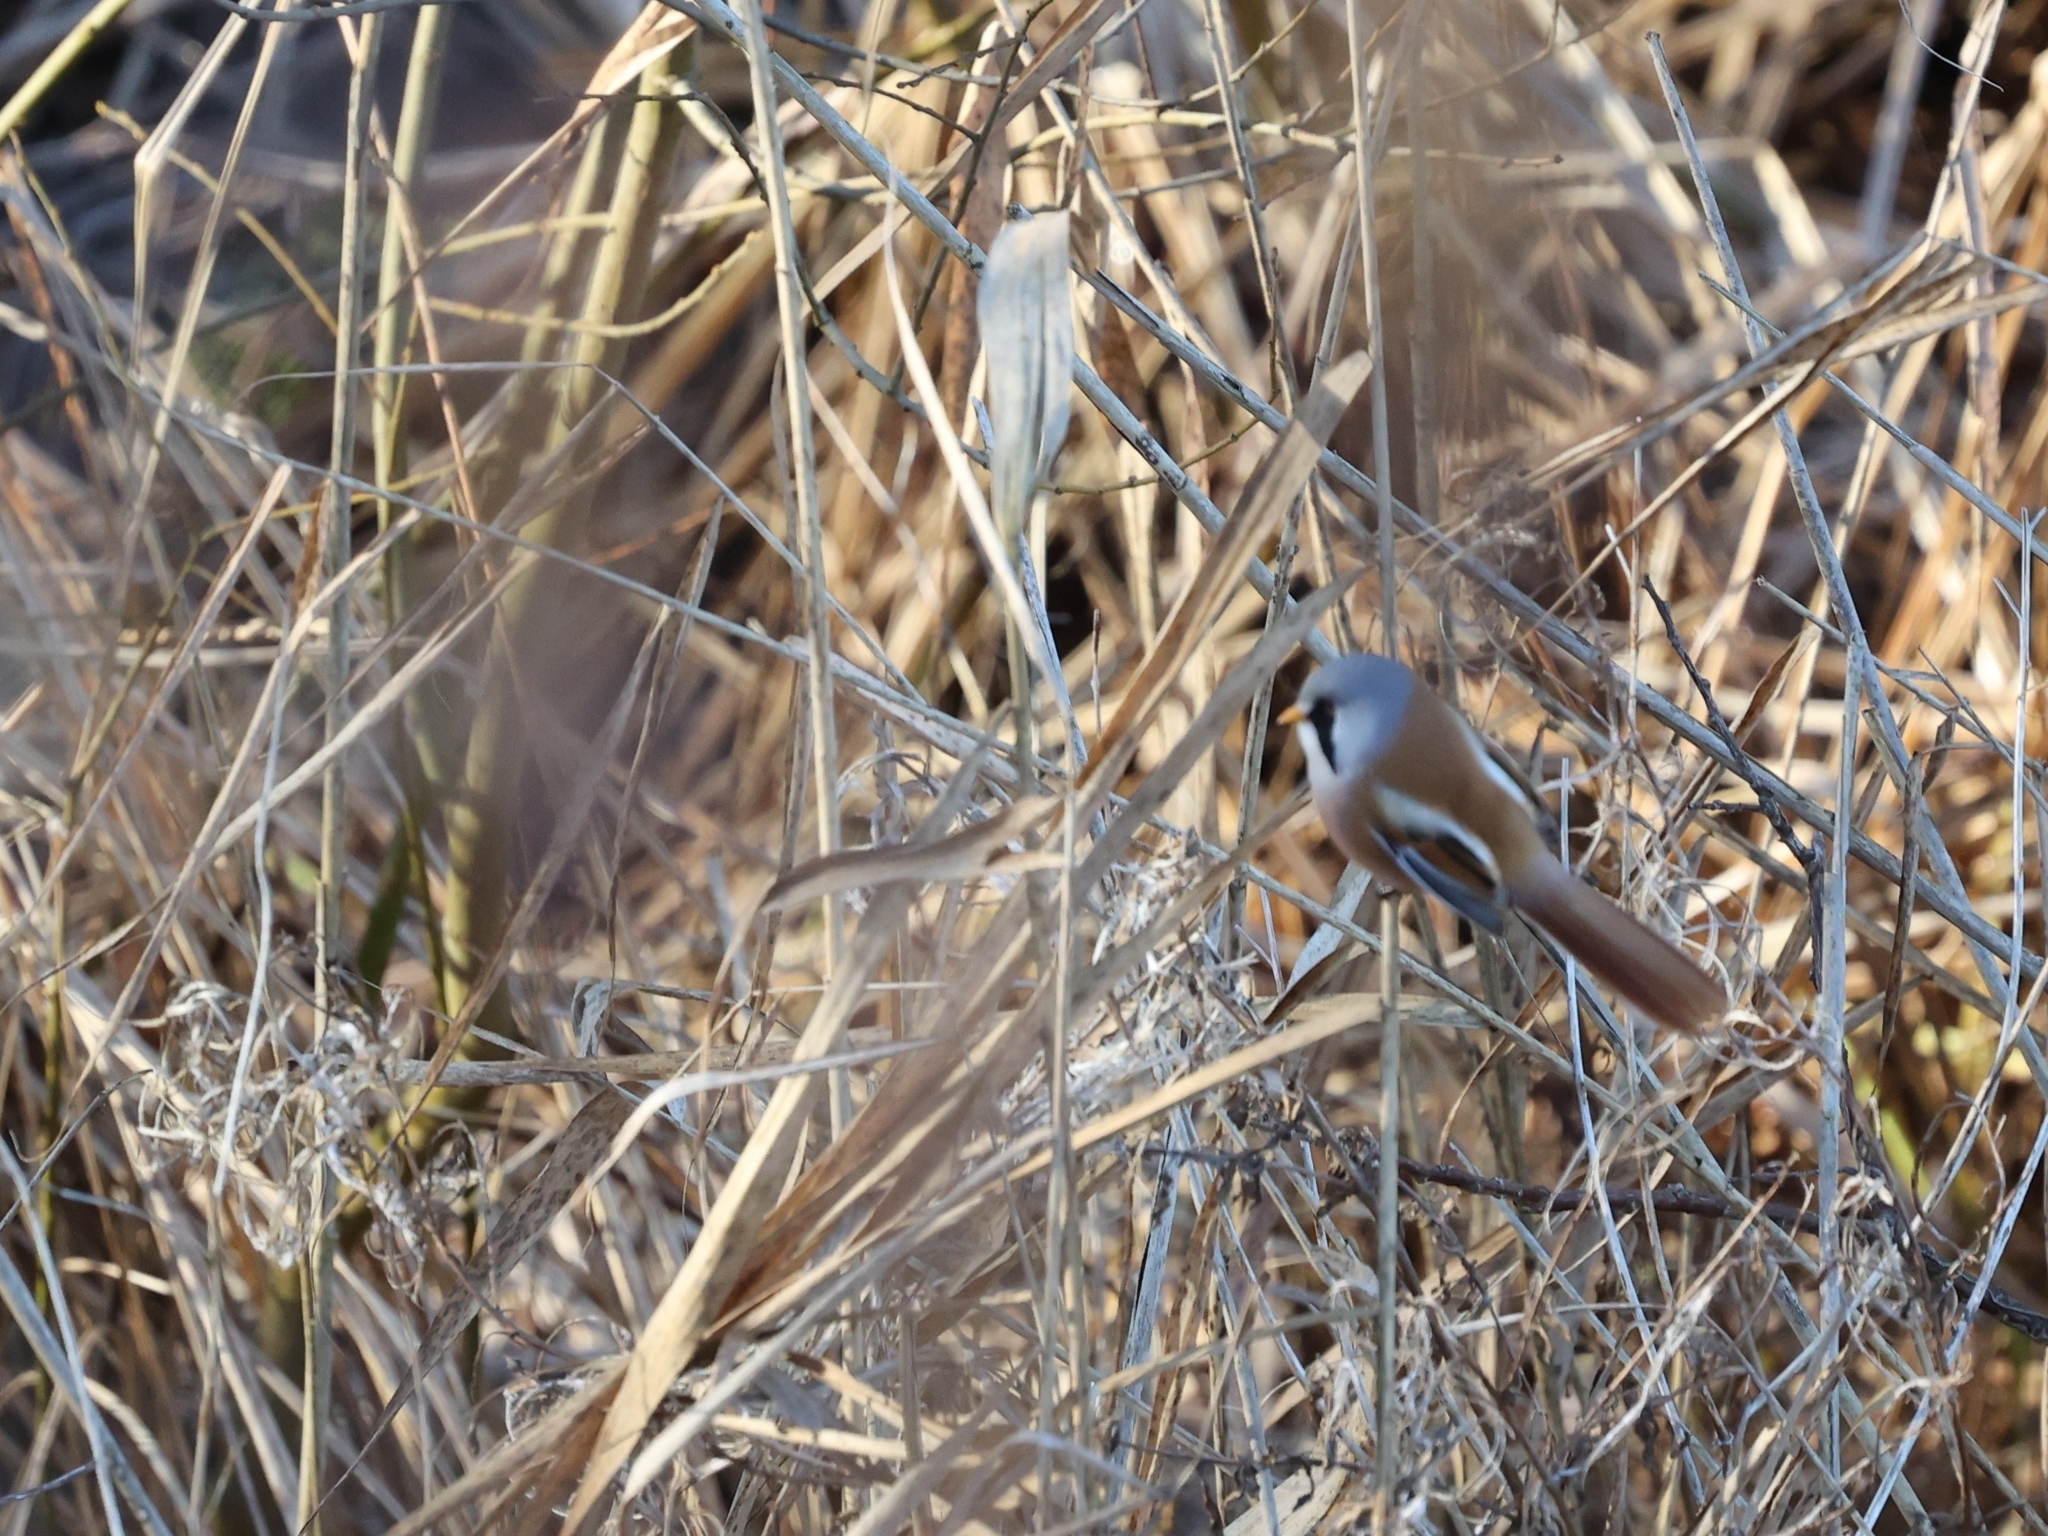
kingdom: Animalia
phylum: Chordata
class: Aves
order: Passeriformes
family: Panuridae
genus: Panurus
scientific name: Panurus biarmicus
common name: Bearded reedling
